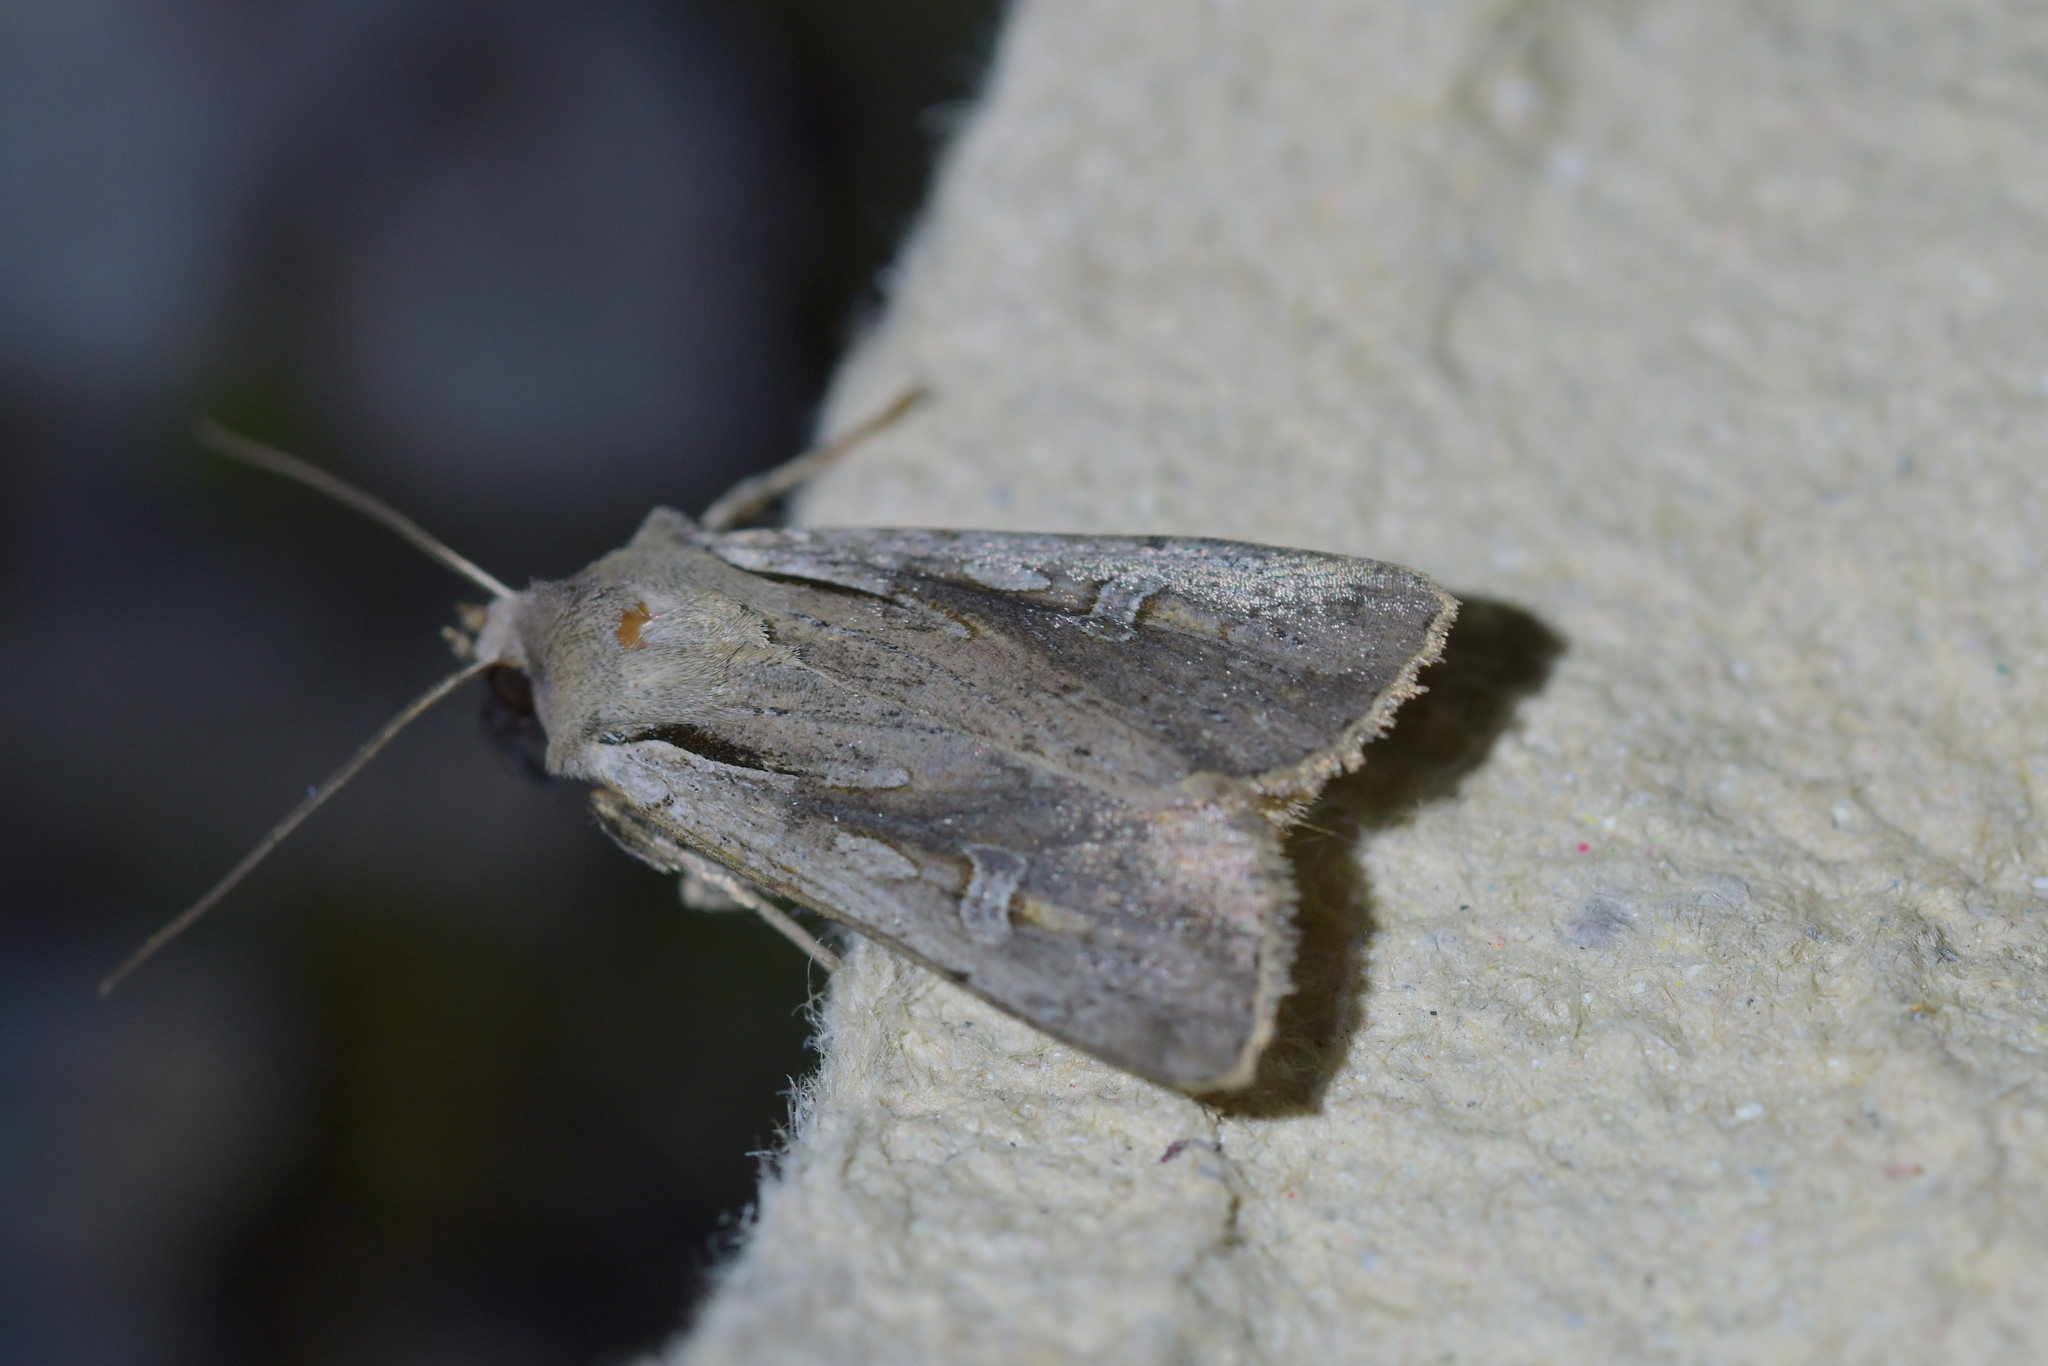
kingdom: Animalia
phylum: Arthropoda
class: Insecta
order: Lepidoptera
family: Noctuidae
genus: Ichneutica
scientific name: Ichneutica atristriga
